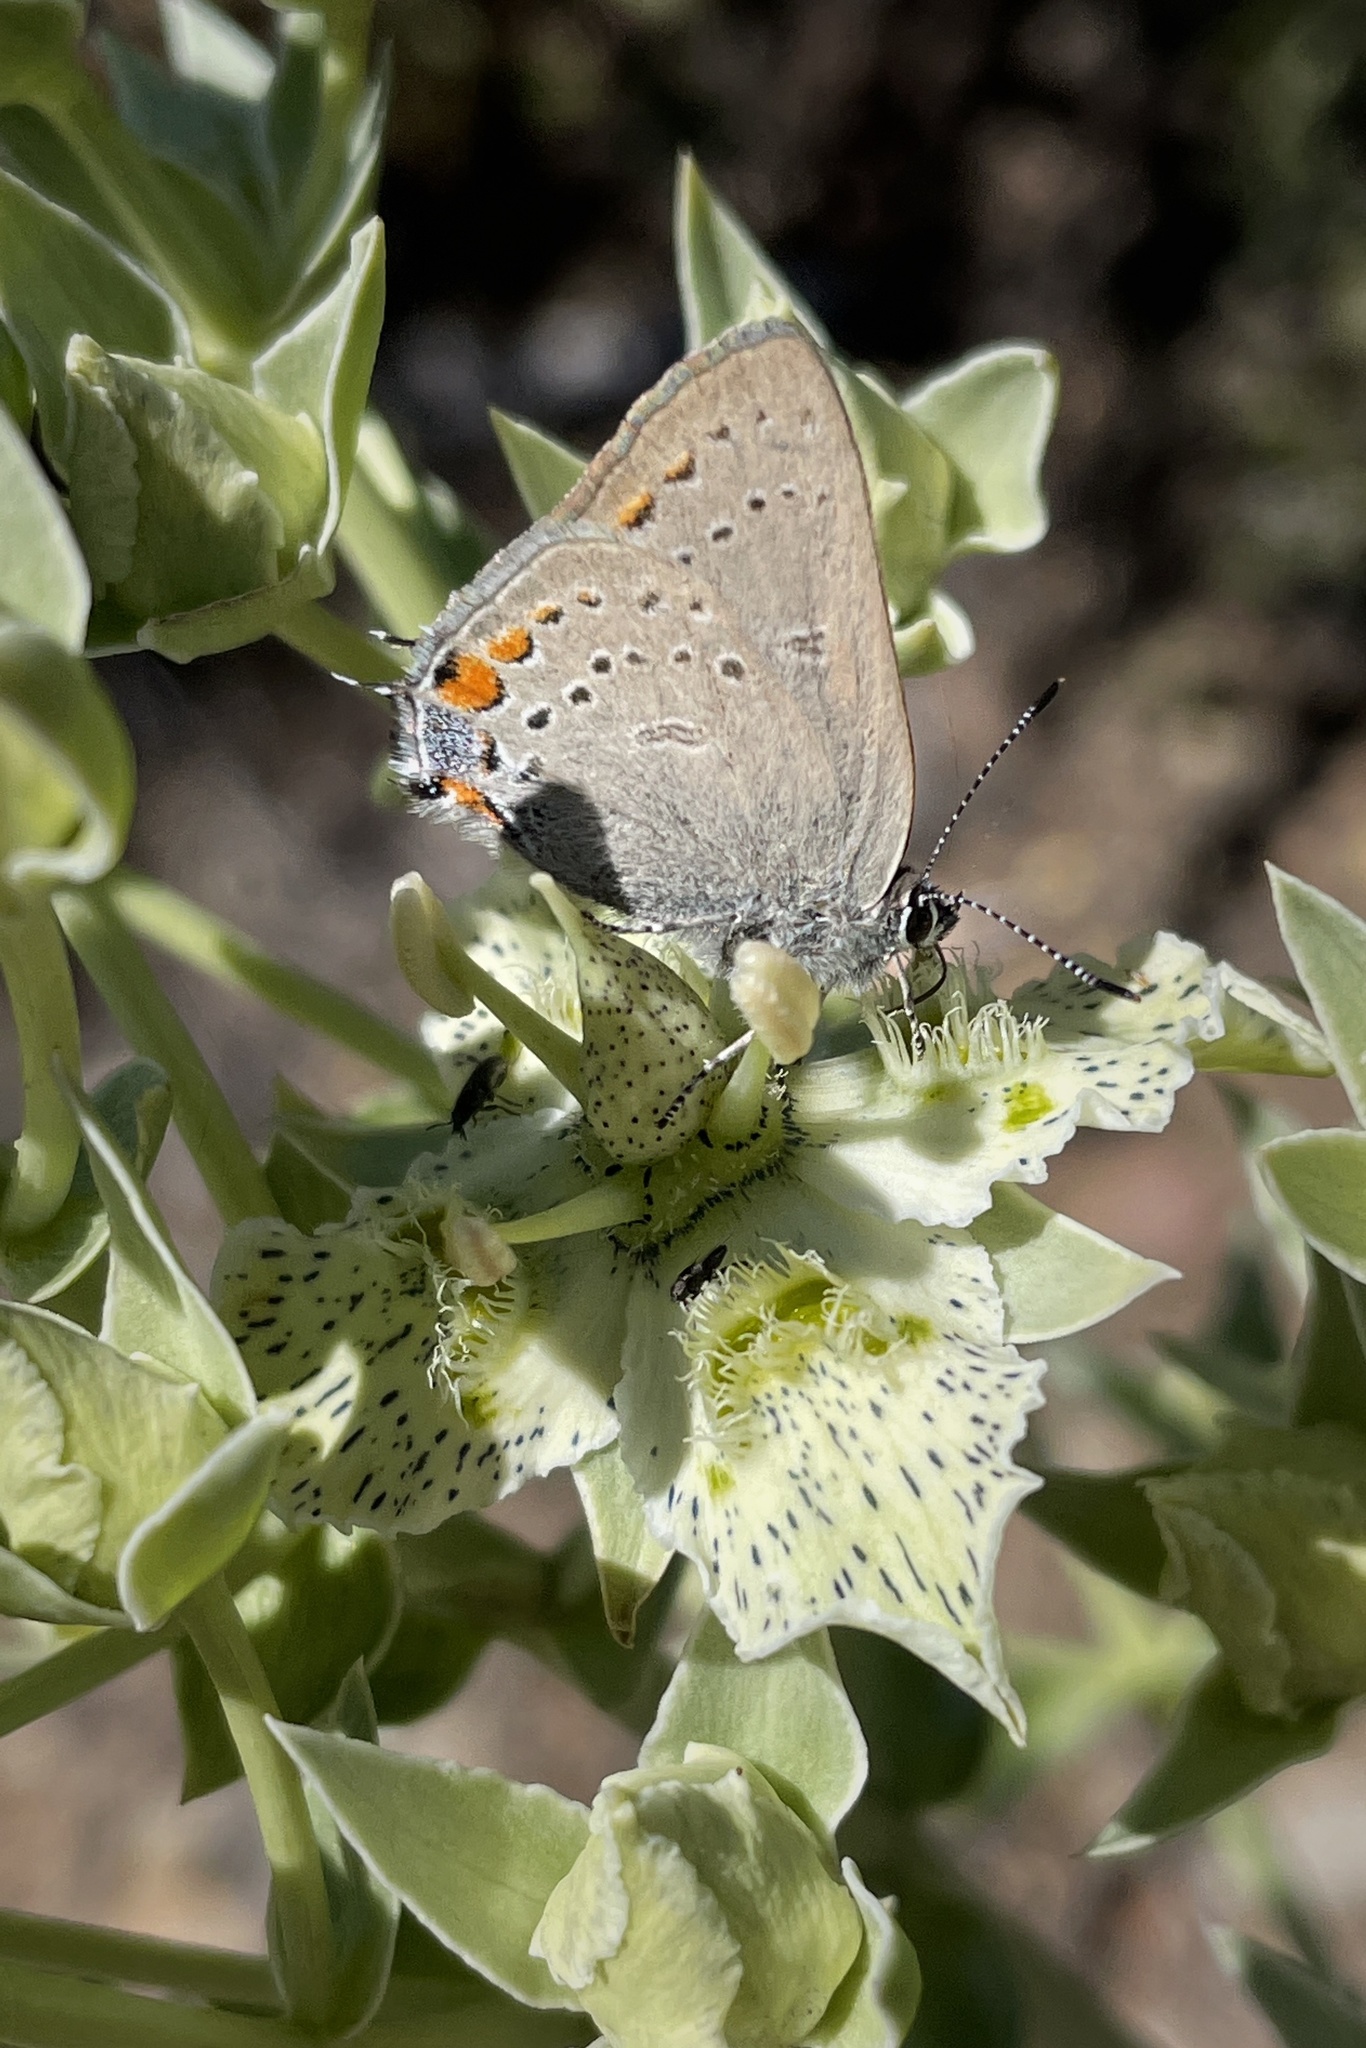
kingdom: Animalia
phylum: Arthropoda
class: Insecta
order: Lepidoptera
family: Lycaenidae
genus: Strymon
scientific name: Strymon acadica
